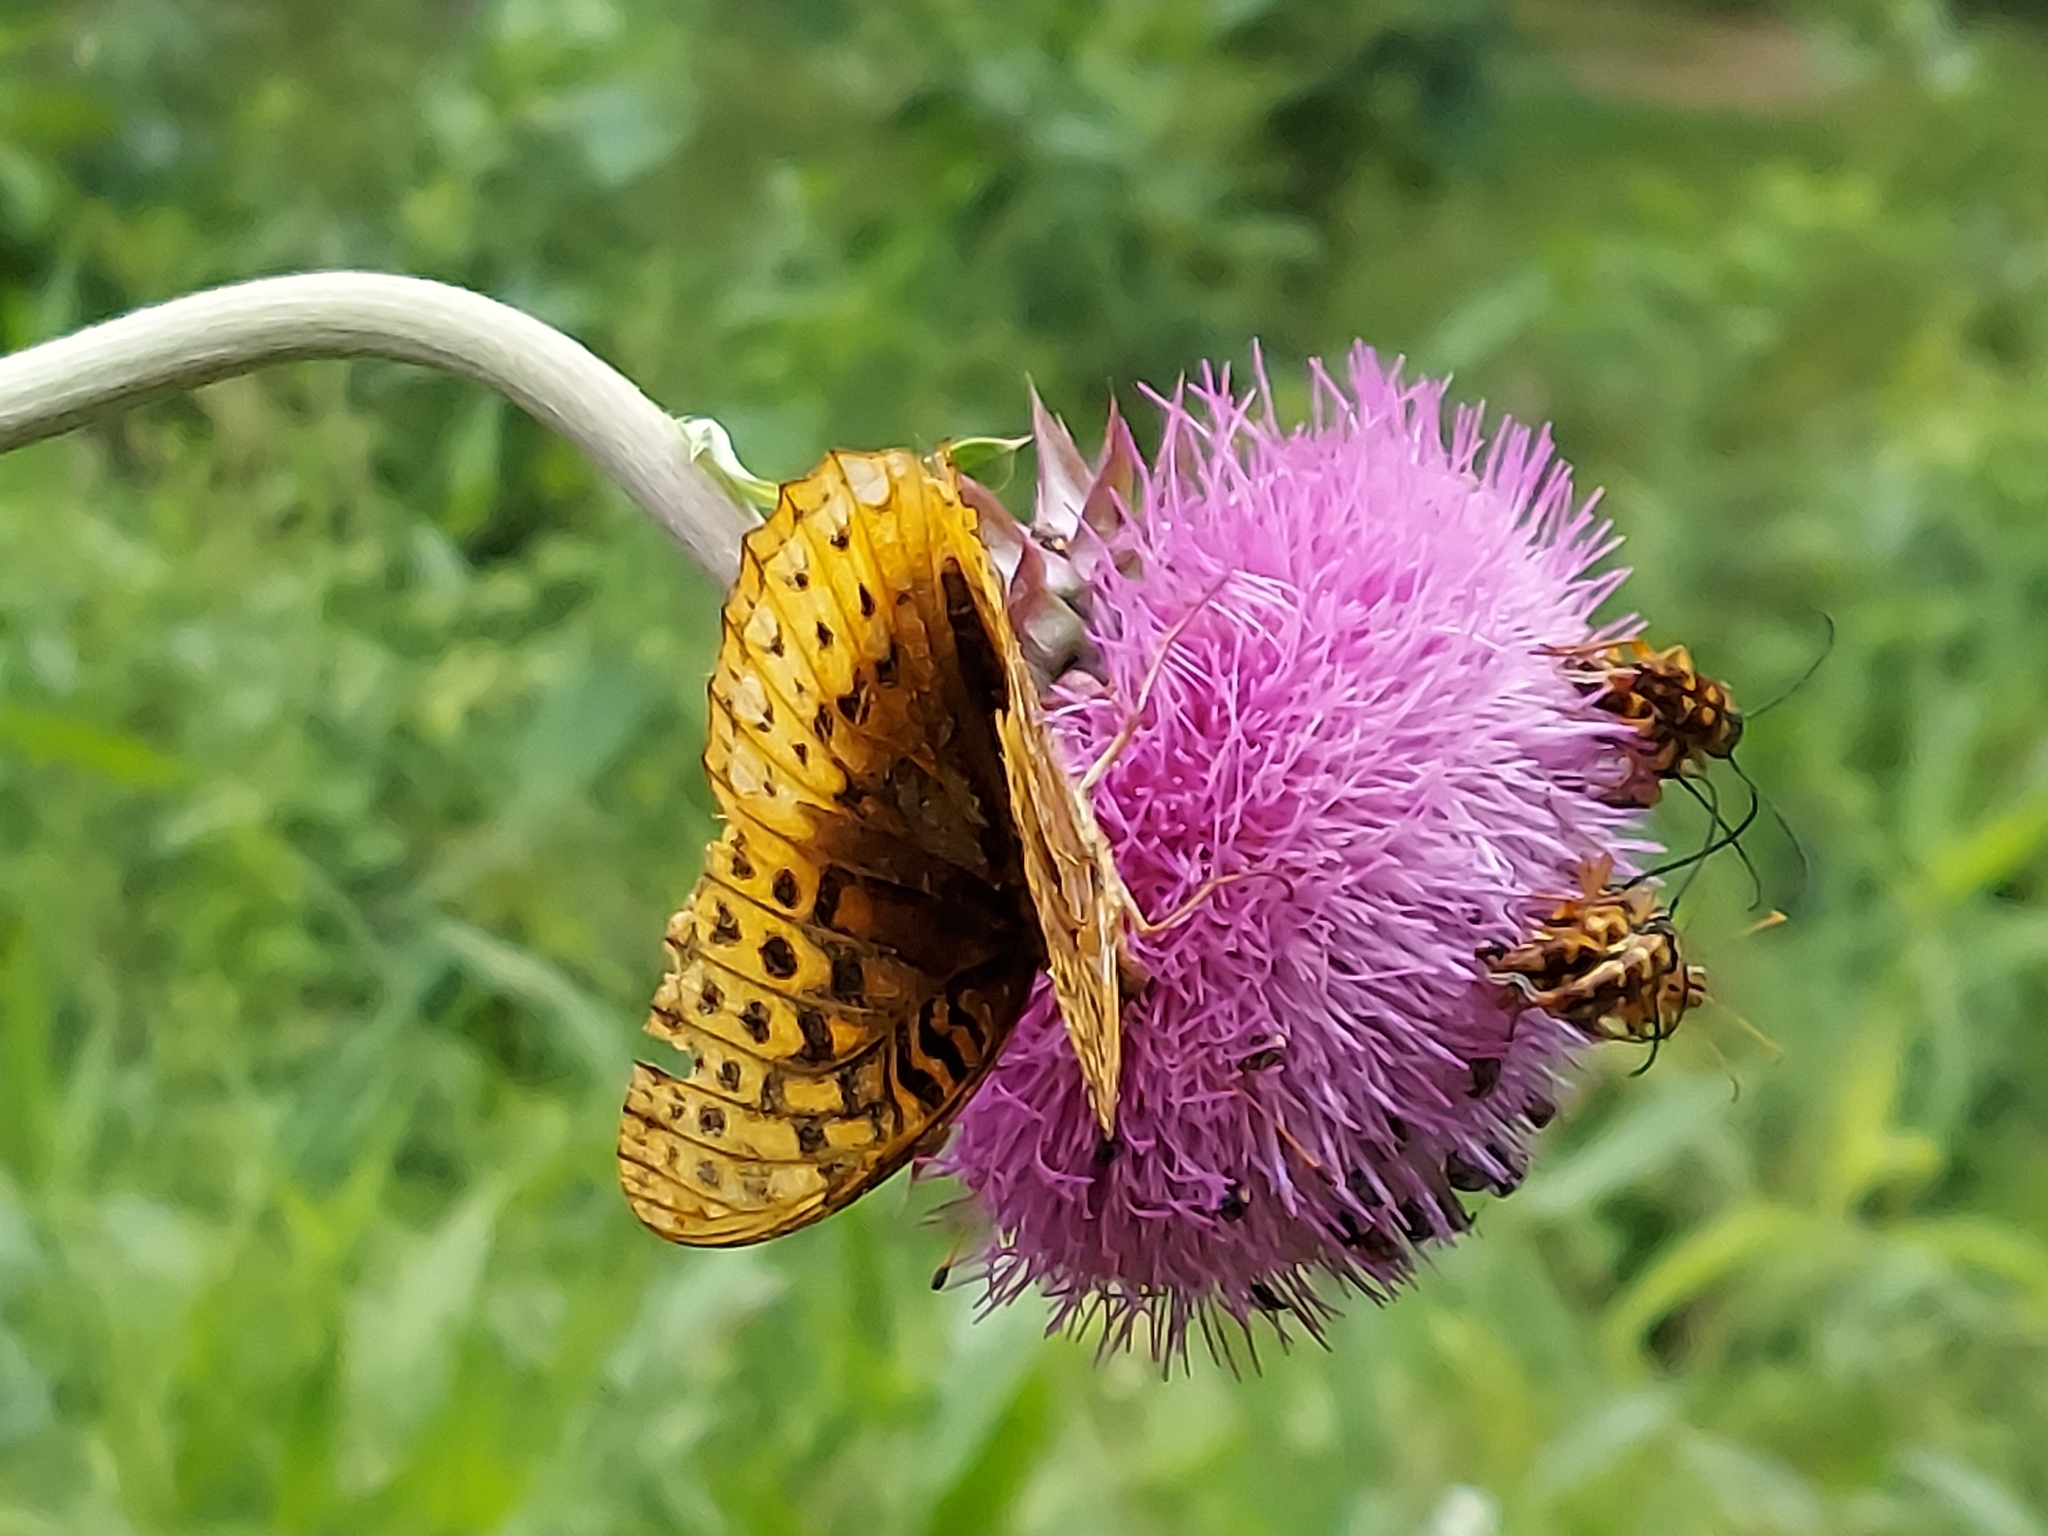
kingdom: Animalia
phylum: Arthropoda
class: Insecta
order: Lepidoptera
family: Nymphalidae
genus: Speyeria
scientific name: Speyeria cybele
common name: Great spangled fritillary
